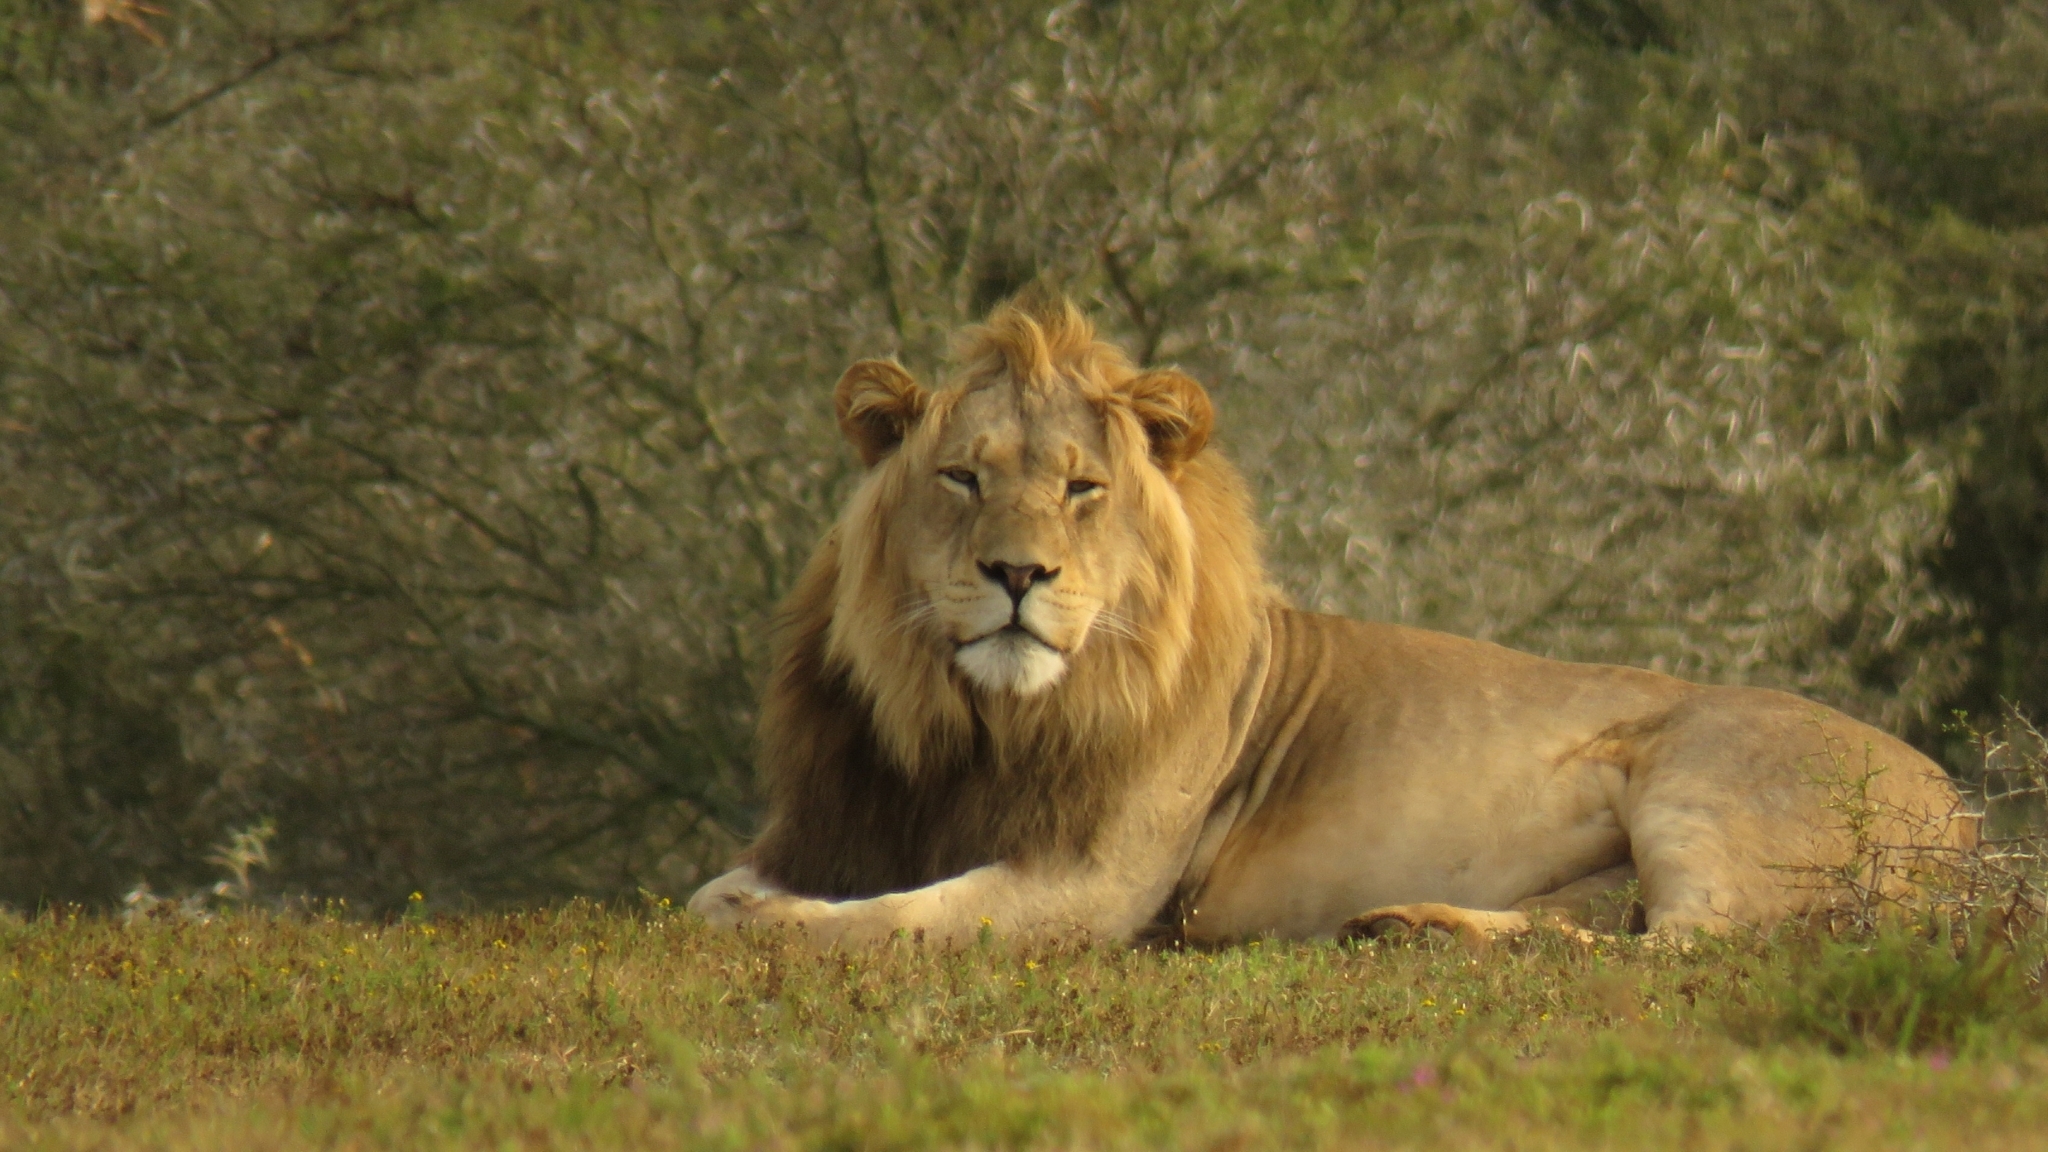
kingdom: Animalia
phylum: Chordata
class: Mammalia
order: Carnivora
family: Felidae
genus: Panthera
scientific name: Panthera leo
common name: Lion
